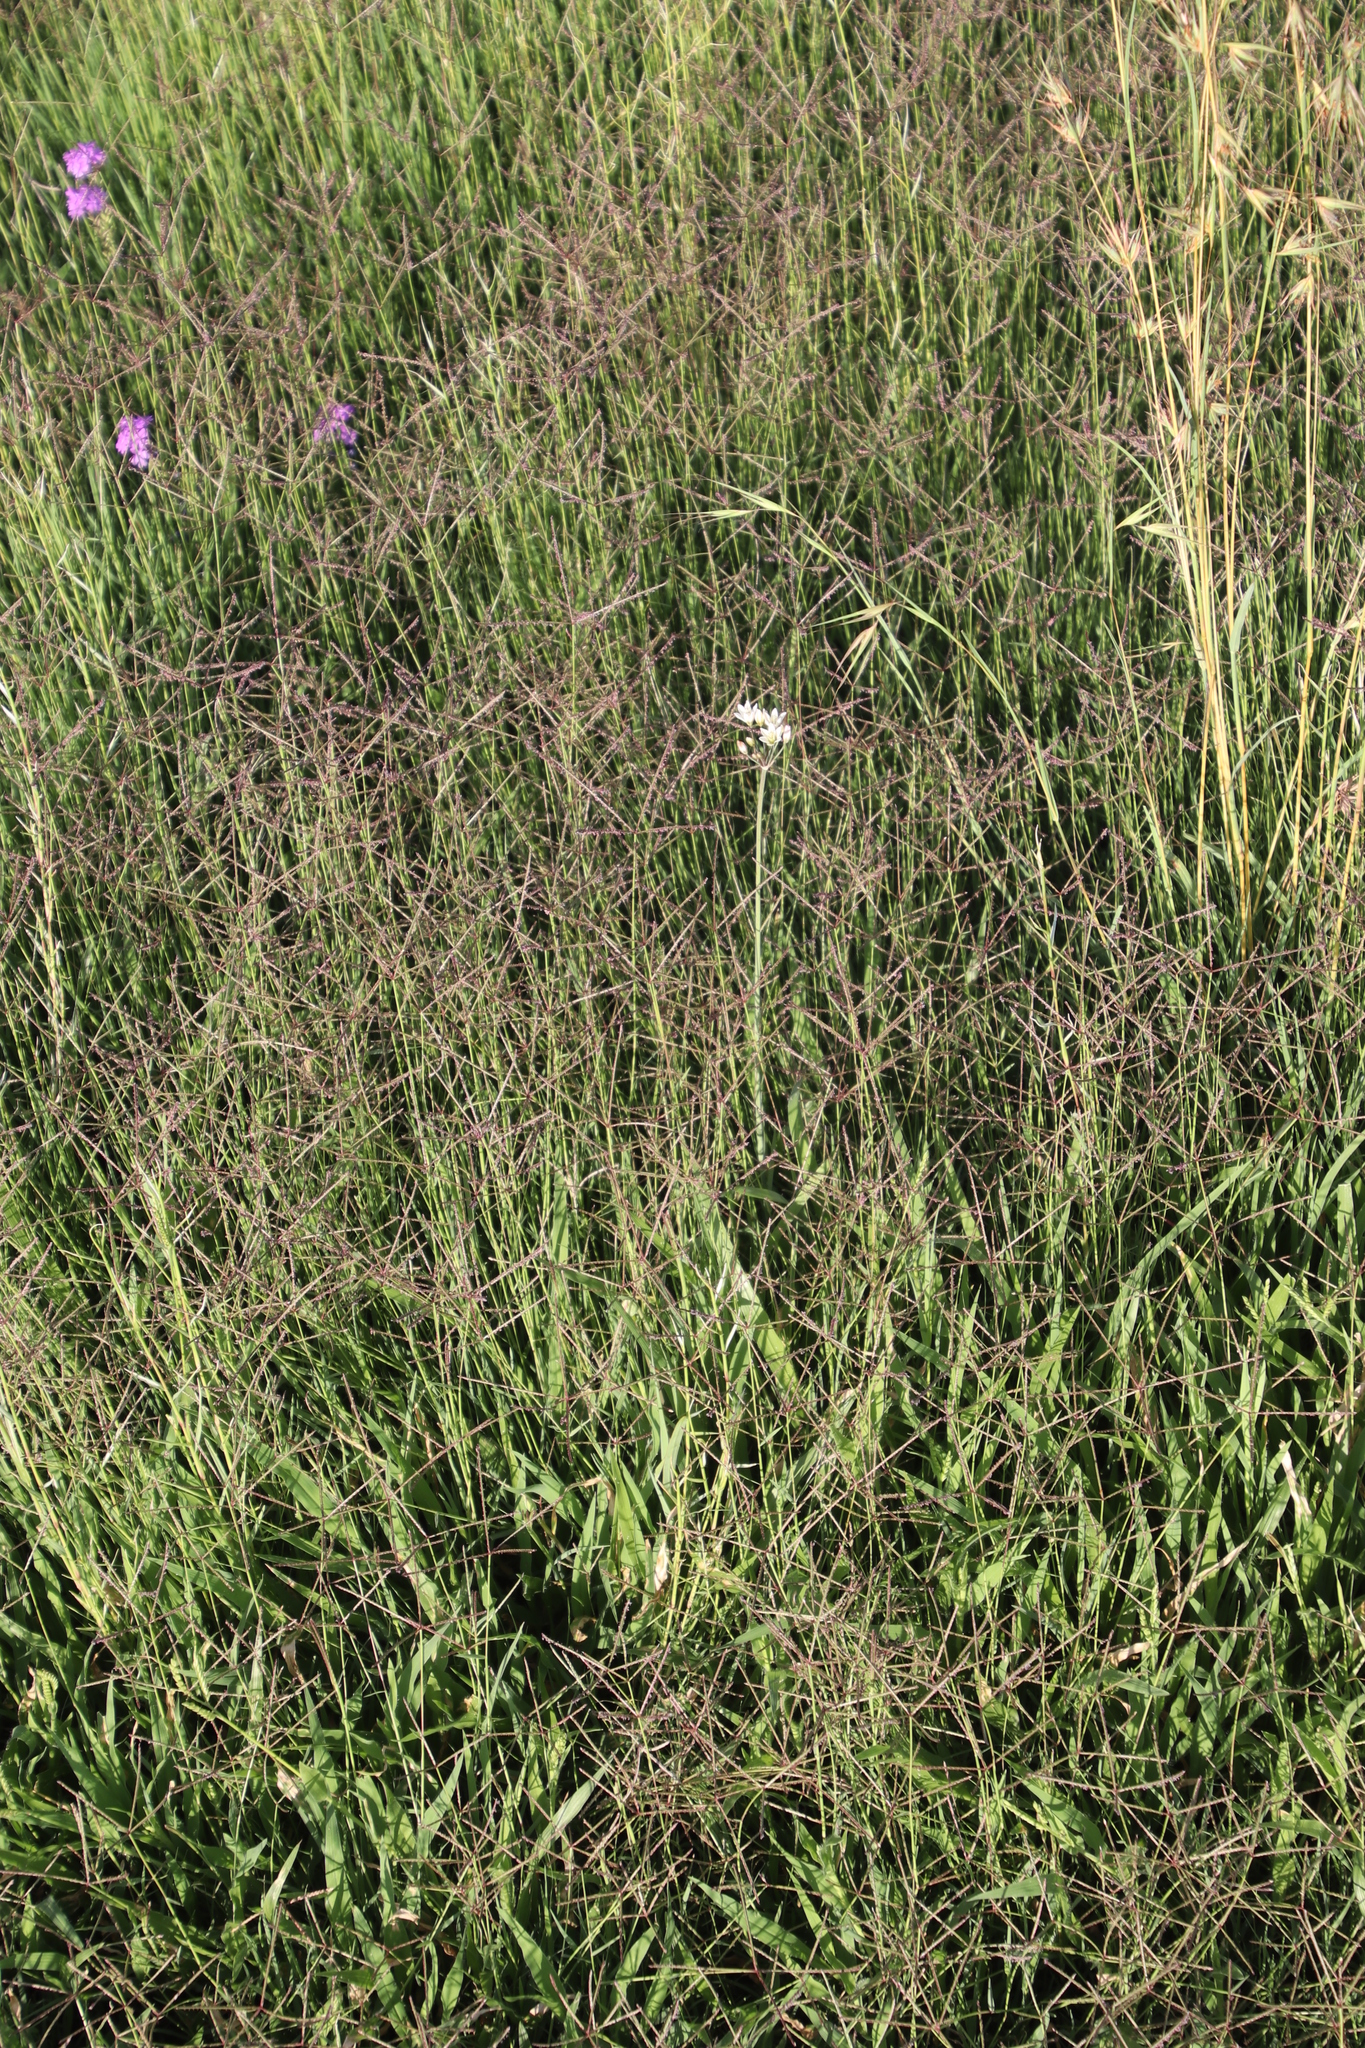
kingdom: Plantae
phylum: Tracheophyta
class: Liliopsida
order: Asparagales
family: Amaryllidaceae
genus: Nothoscordum
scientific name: Nothoscordum gracile
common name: Slender false garlic
